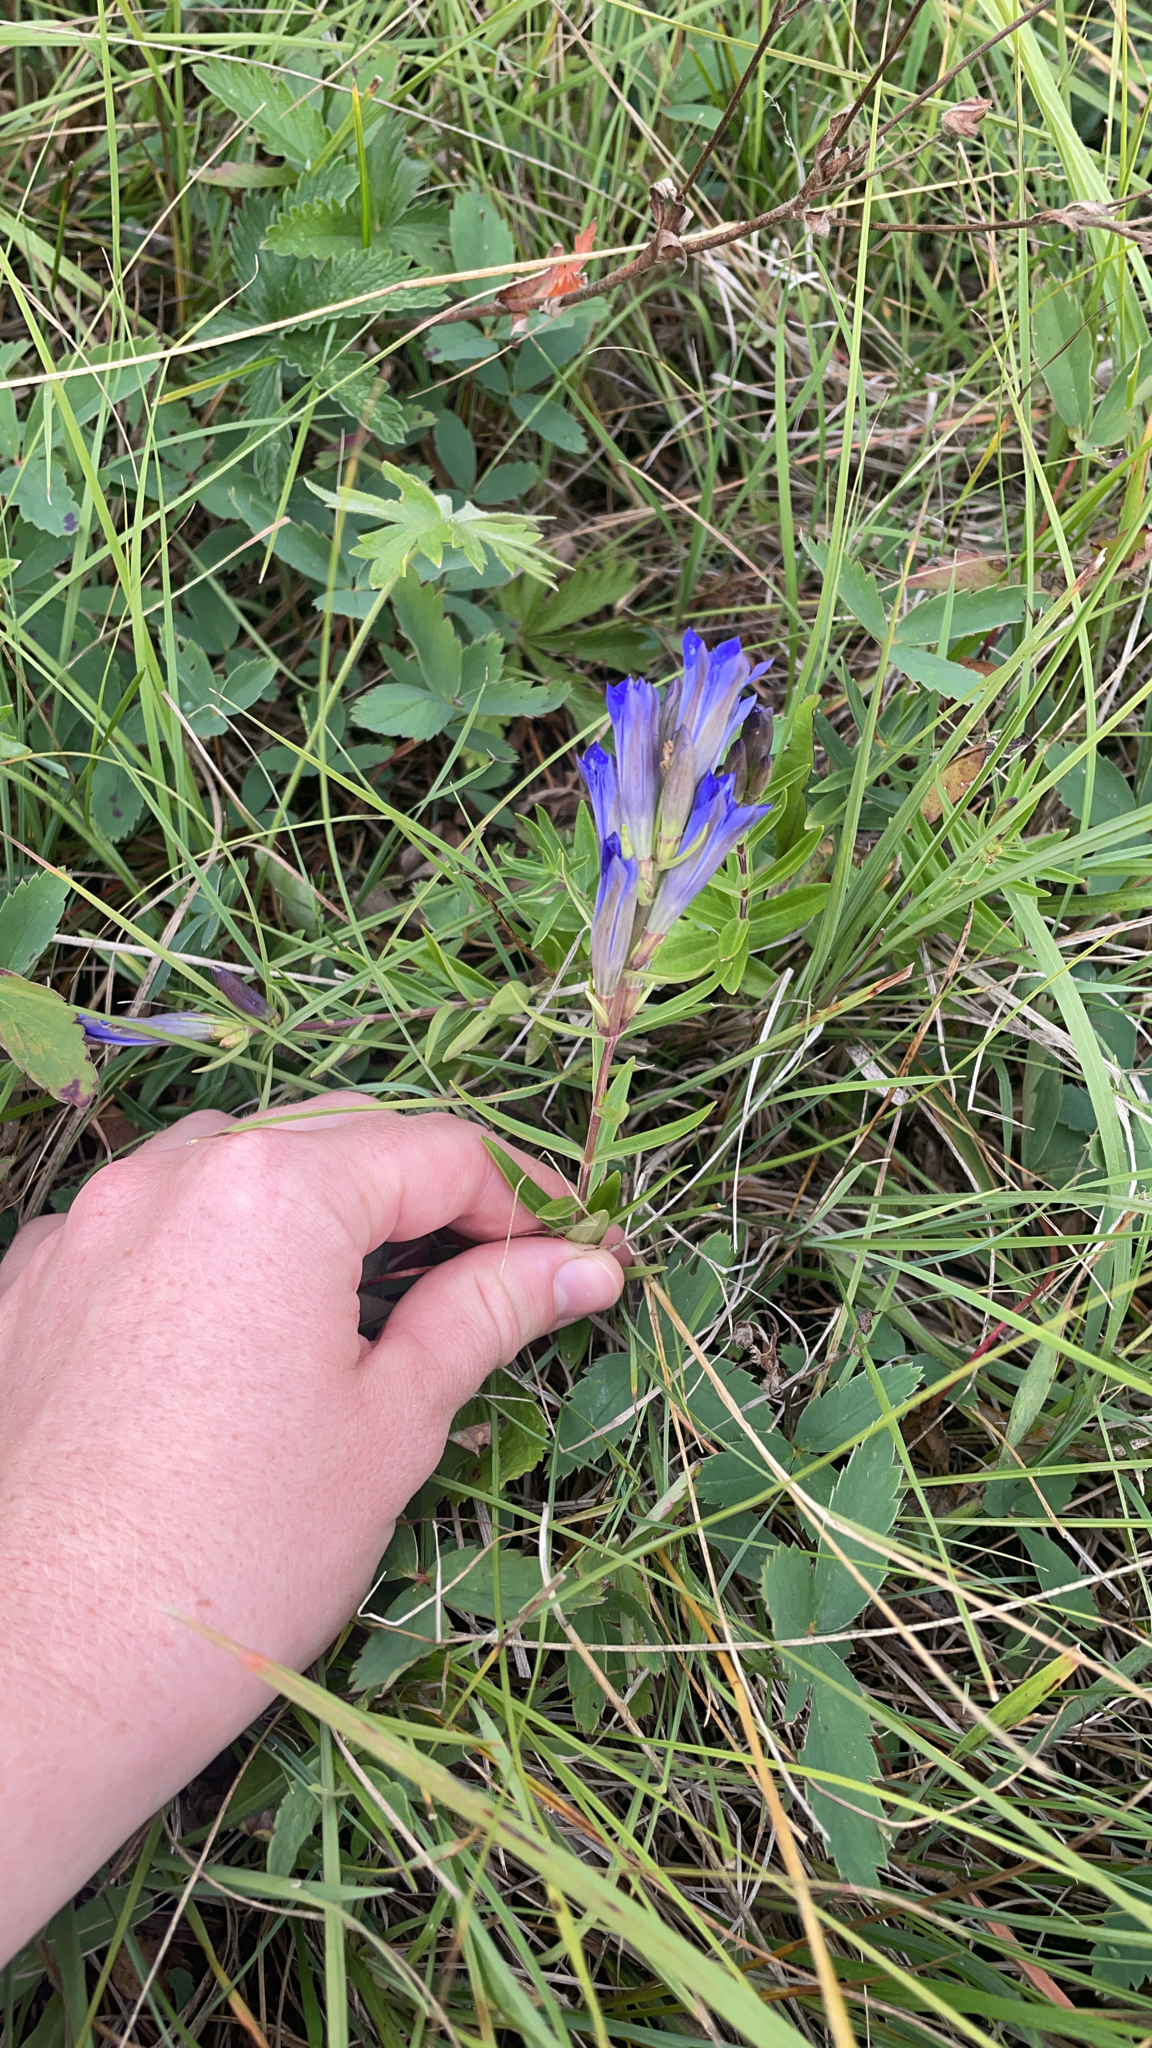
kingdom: Plantae
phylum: Tracheophyta
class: Magnoliopsida
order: Gentianales
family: Gentianaceae
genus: Gentiana
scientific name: Gentiana affinis
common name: Rocky mountain gentian
